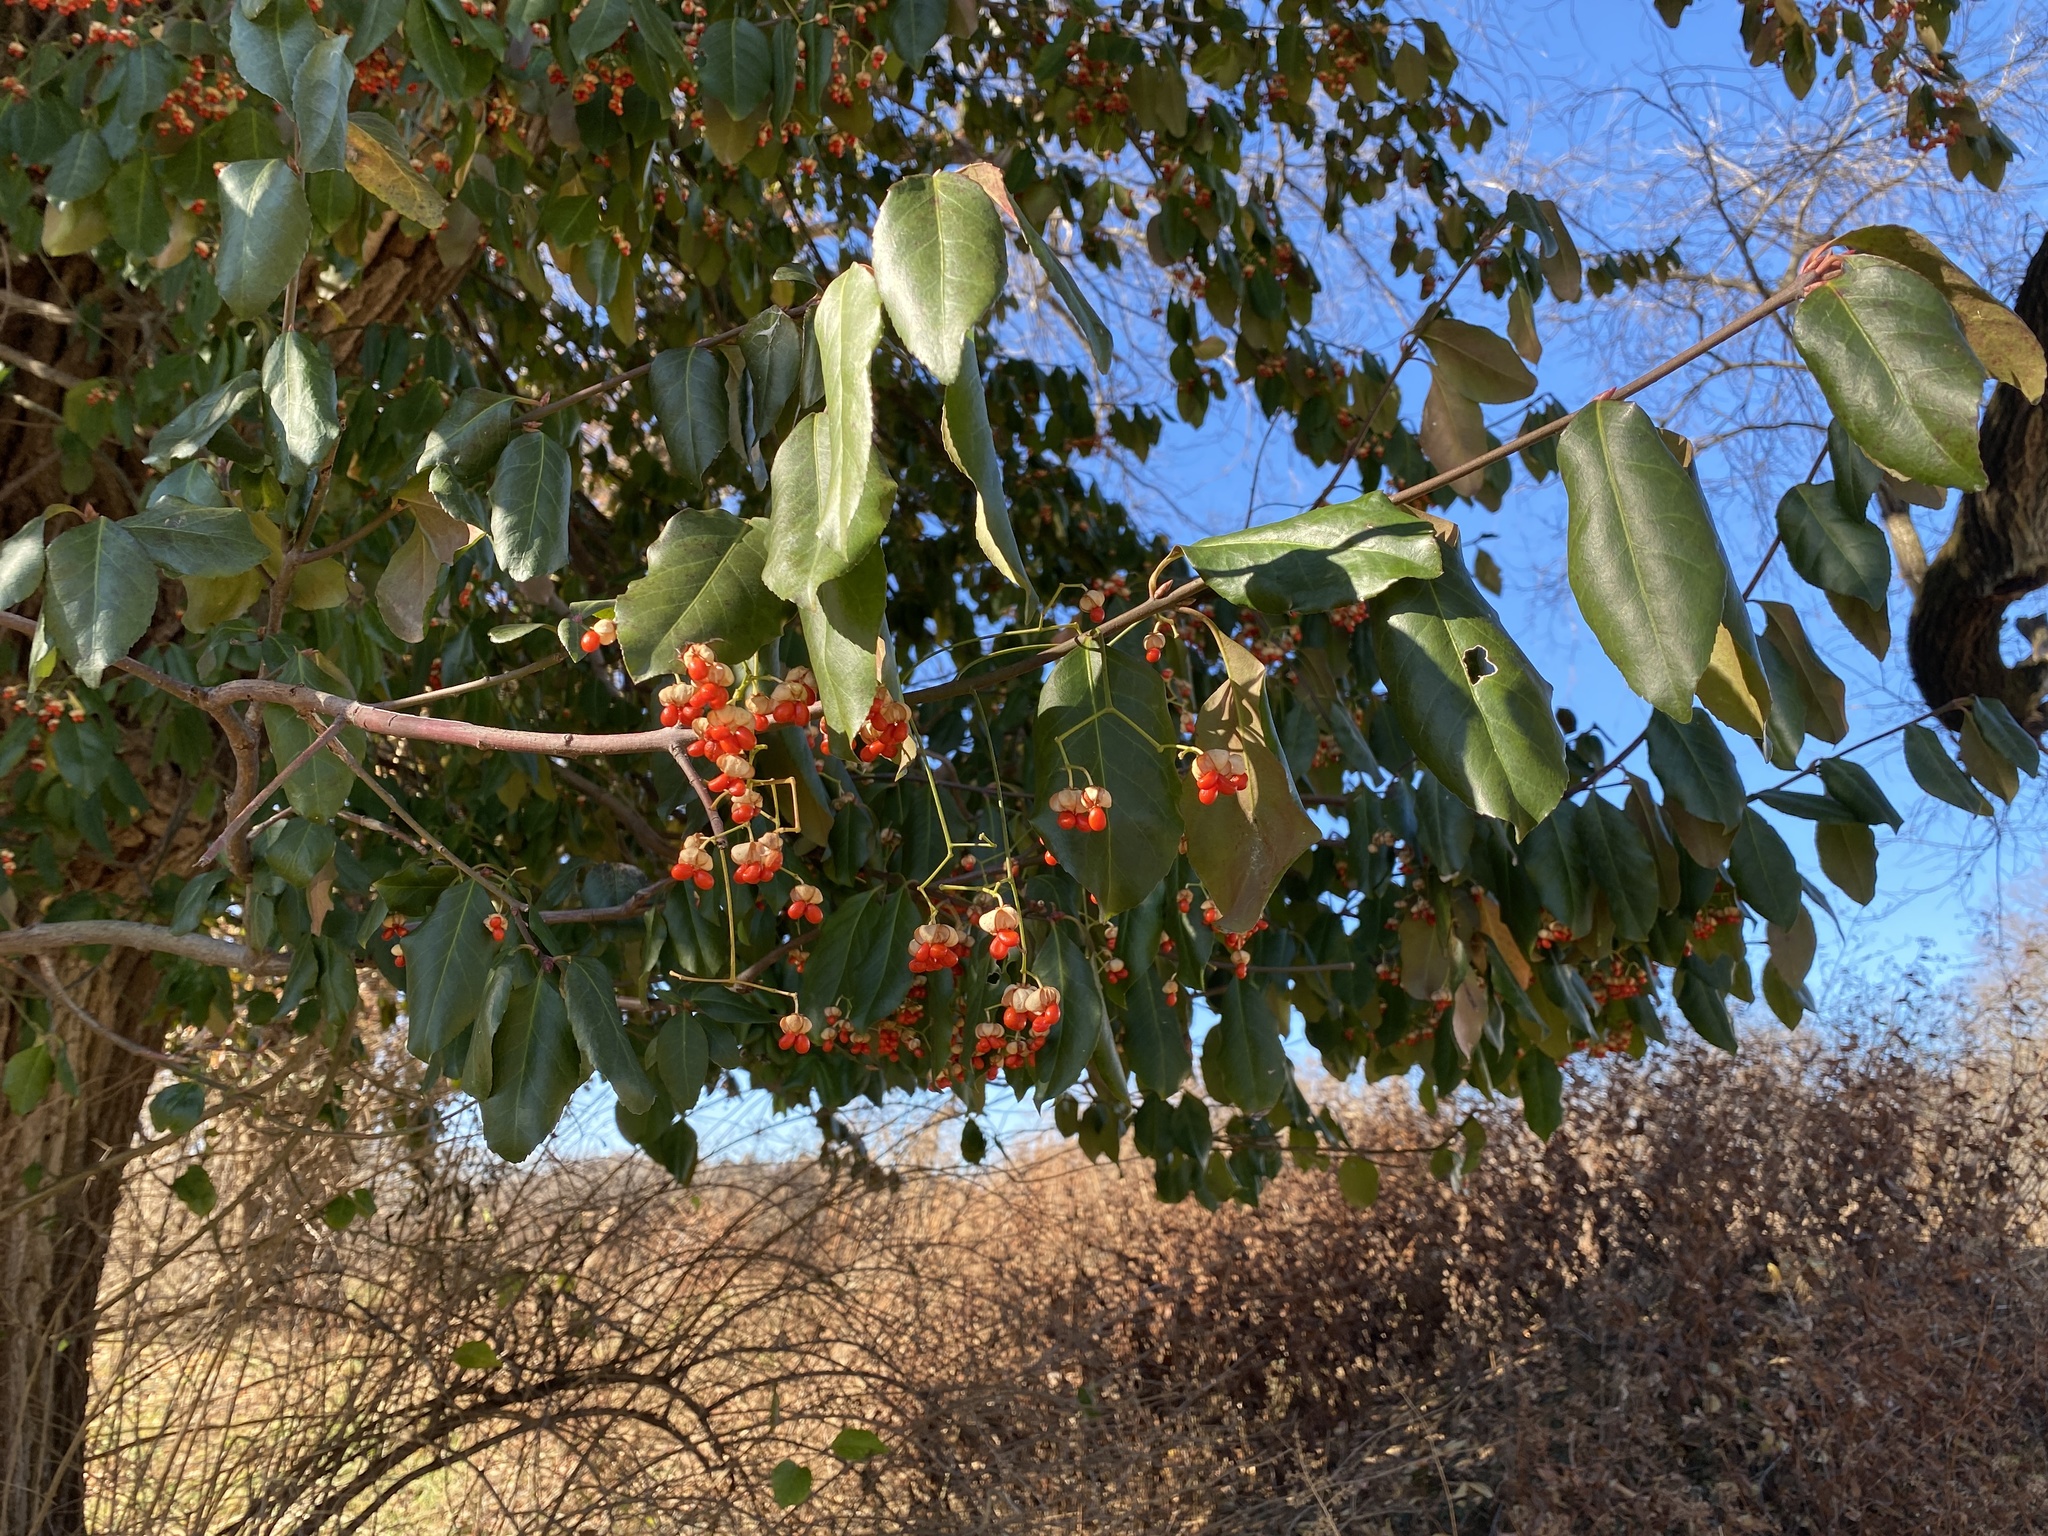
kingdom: Plantae
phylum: Tracheophyta
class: Magnoliopsida
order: Celastrales
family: Celastraceae
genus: Euonymus
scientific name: Euonymus fortunei
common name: Climbing euonymus
